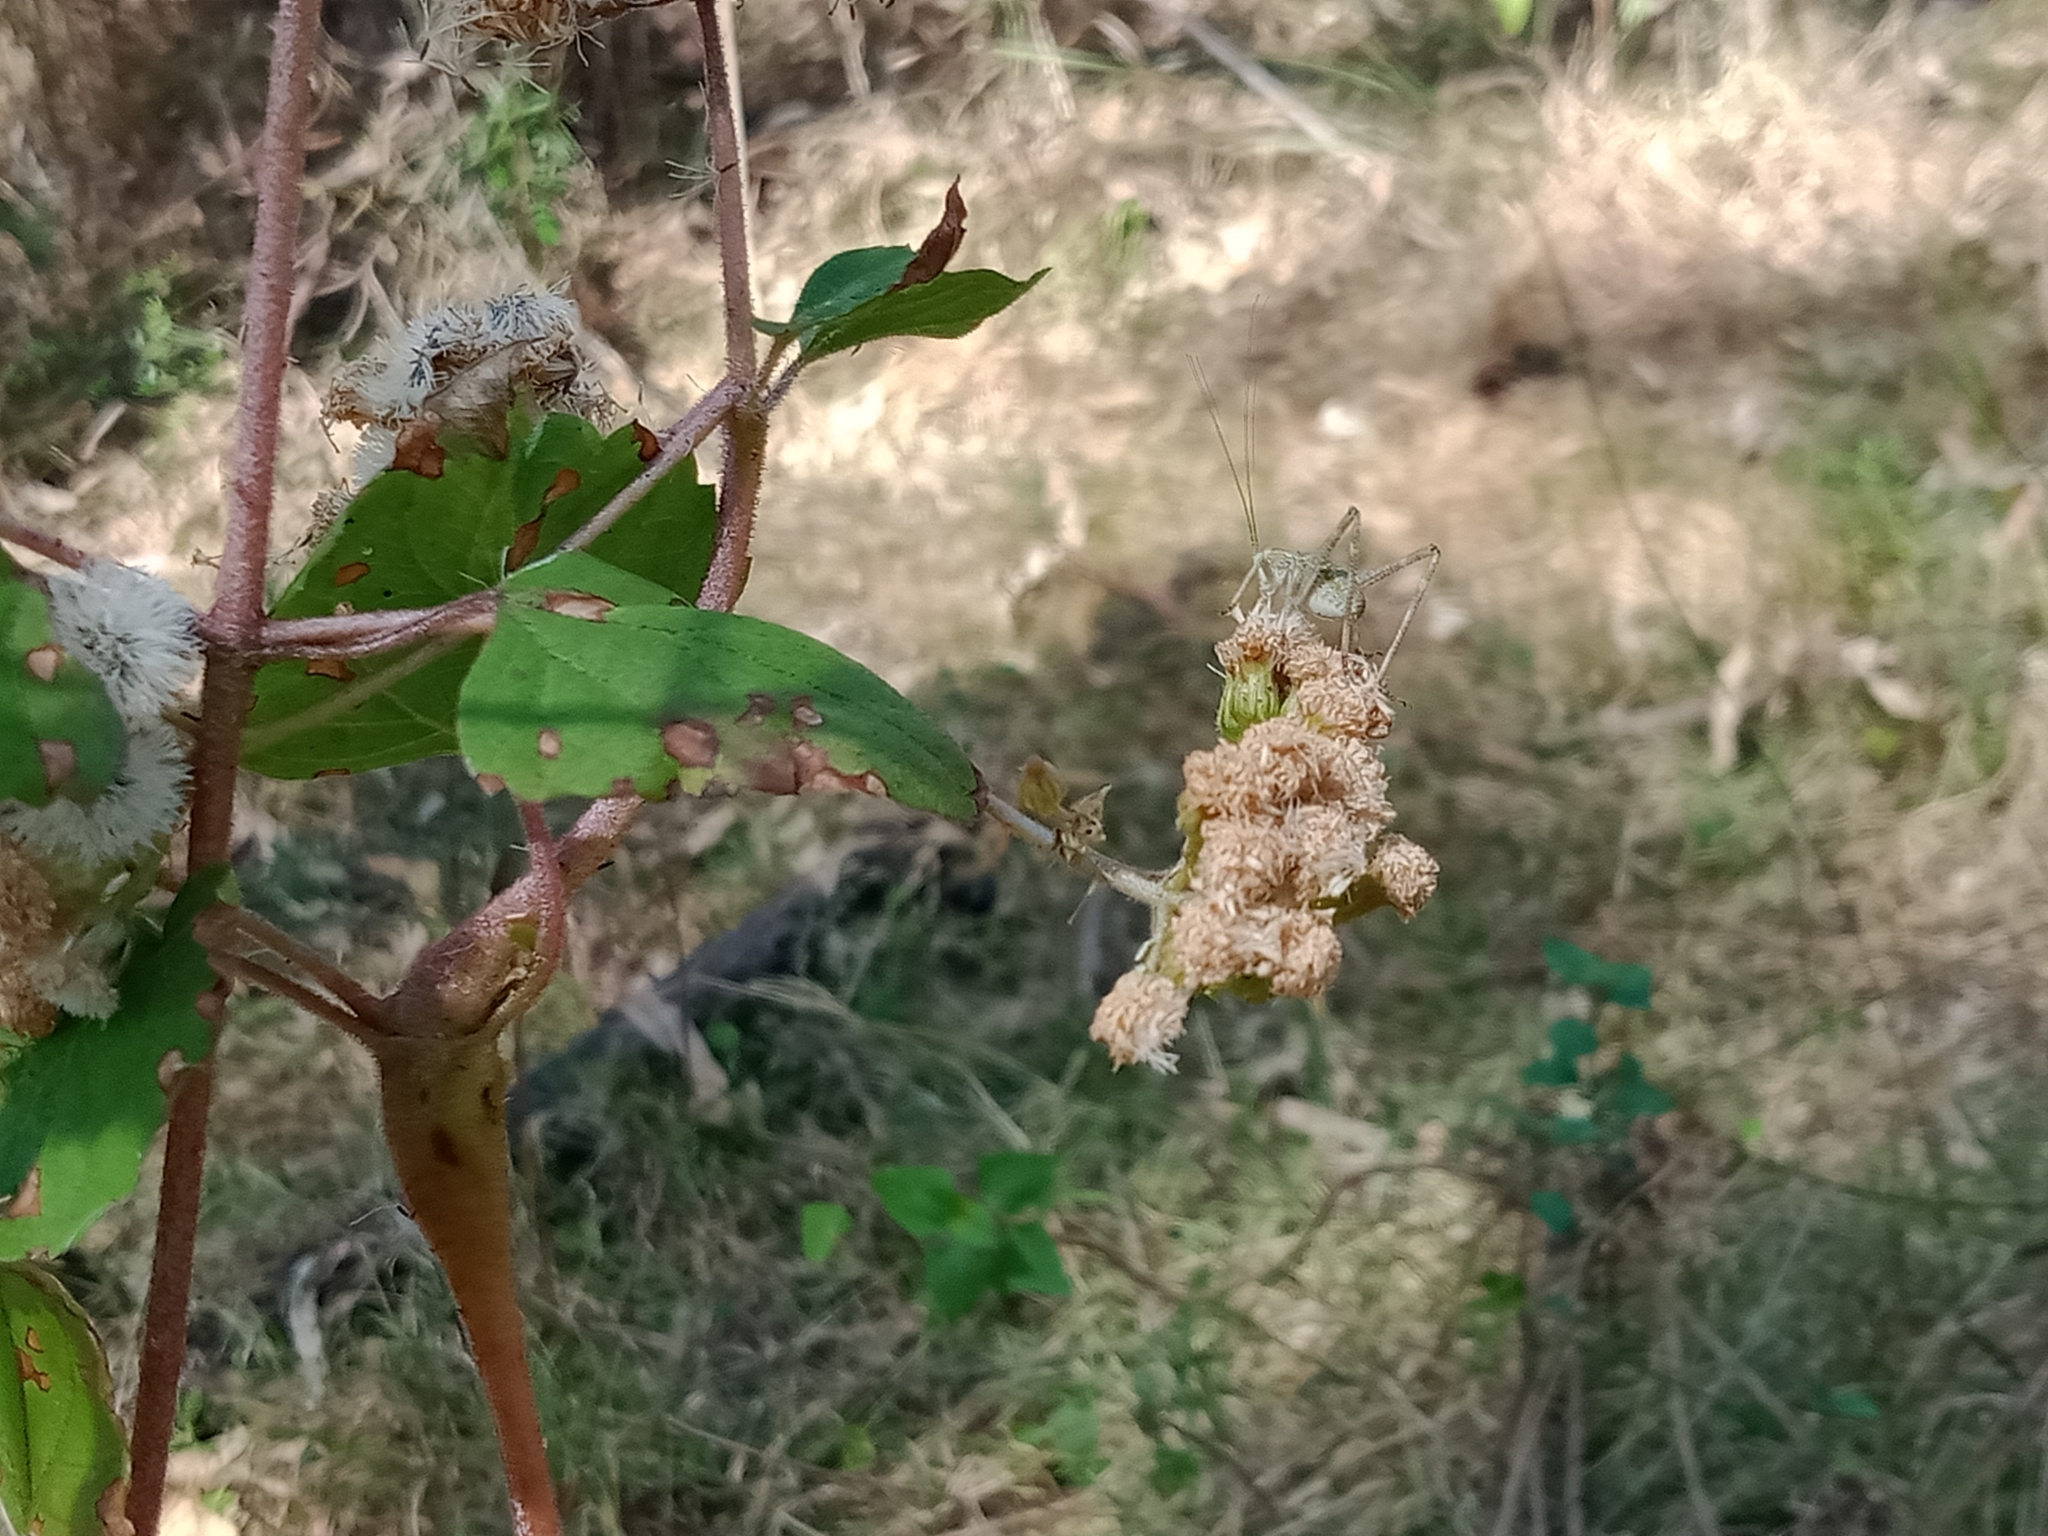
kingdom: Plantae
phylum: Tracheophyta
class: Magnoliopsida
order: Asterales
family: Asteraceae
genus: Ageratina
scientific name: Ageratina adenophora
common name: Sticky snakeroot
